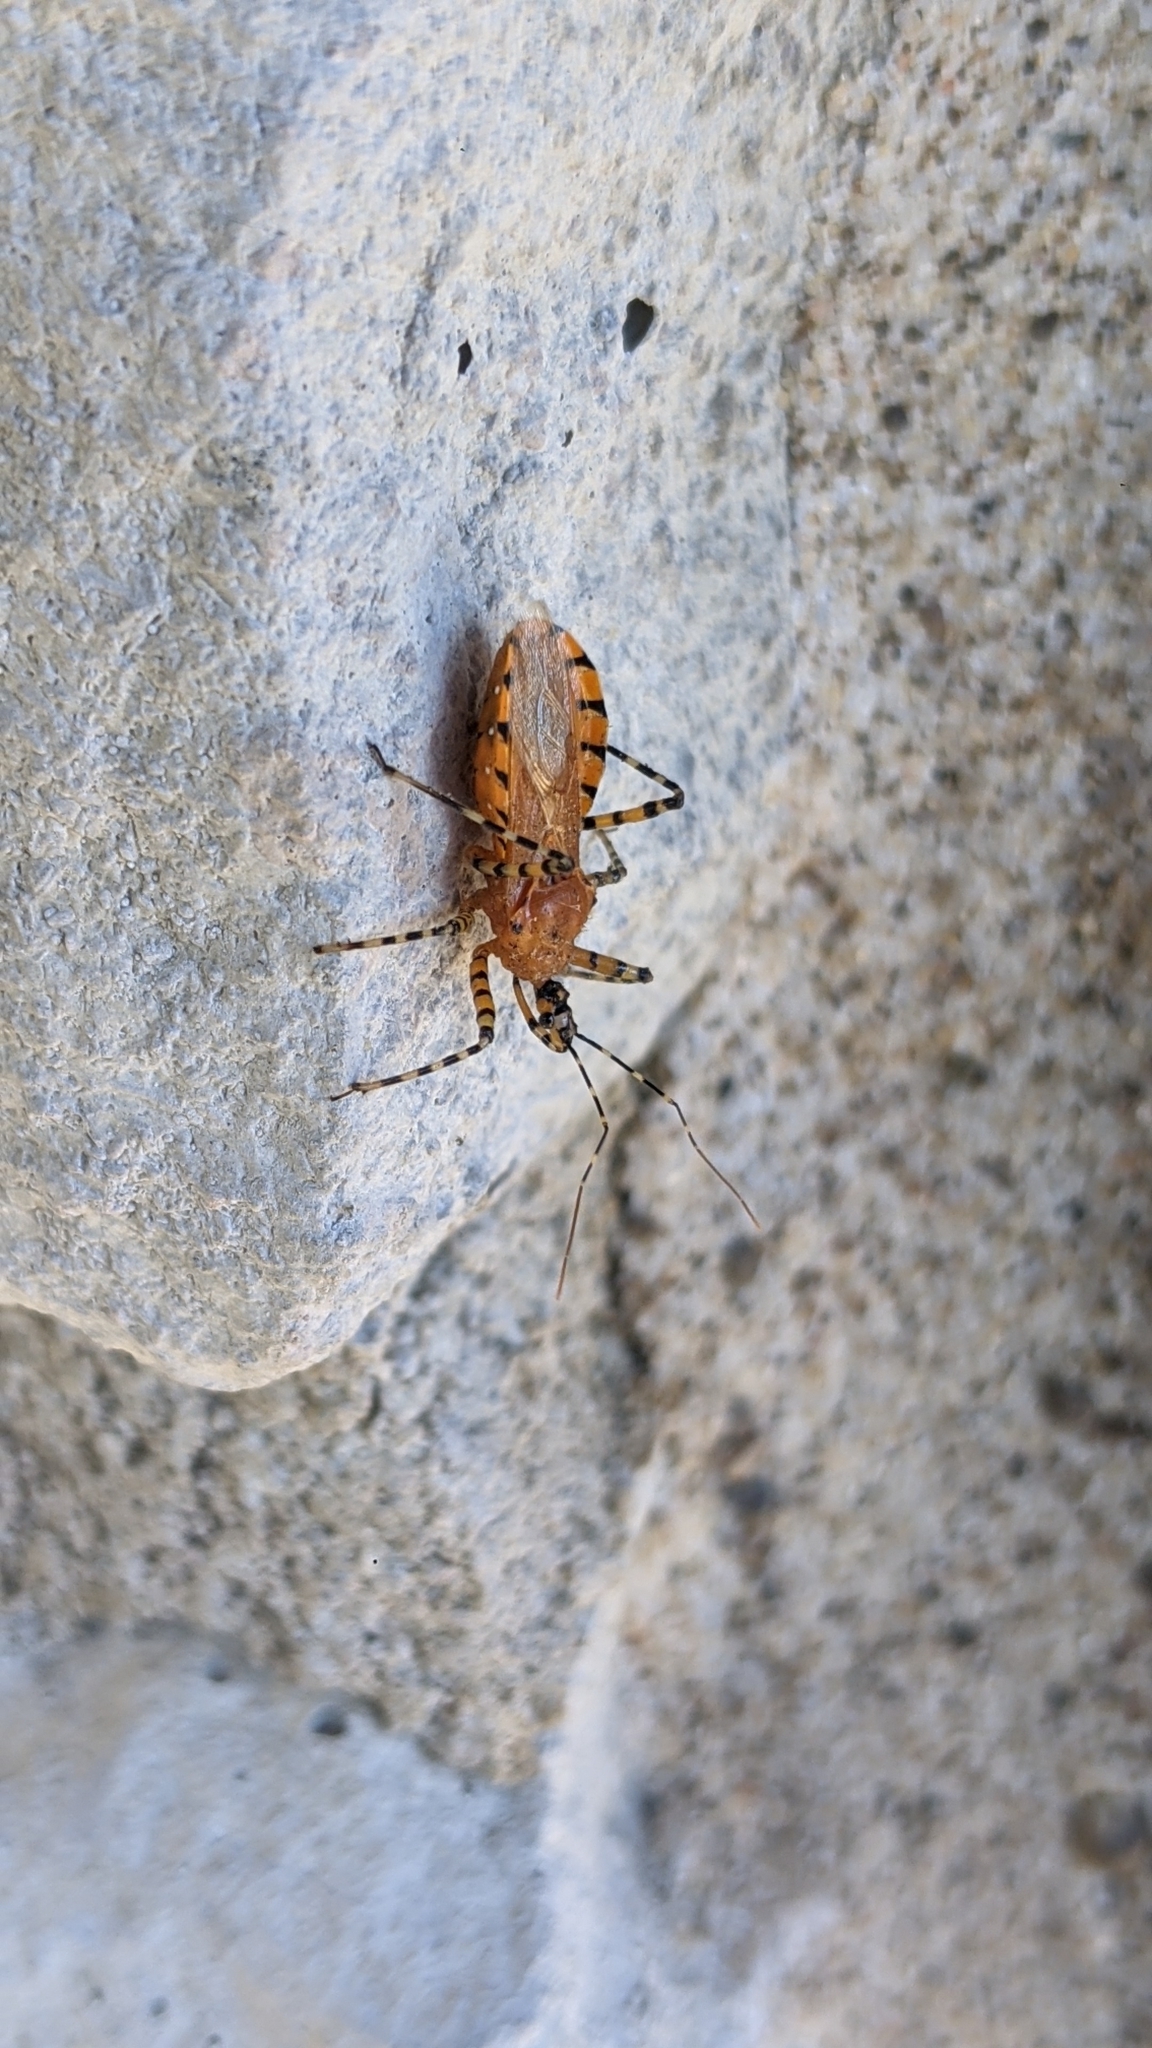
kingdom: Animalia
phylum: Arthropoda
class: Insecta
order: Hemiptera
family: Reduviidae
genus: Pselliopus
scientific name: Pselliopus barberi
